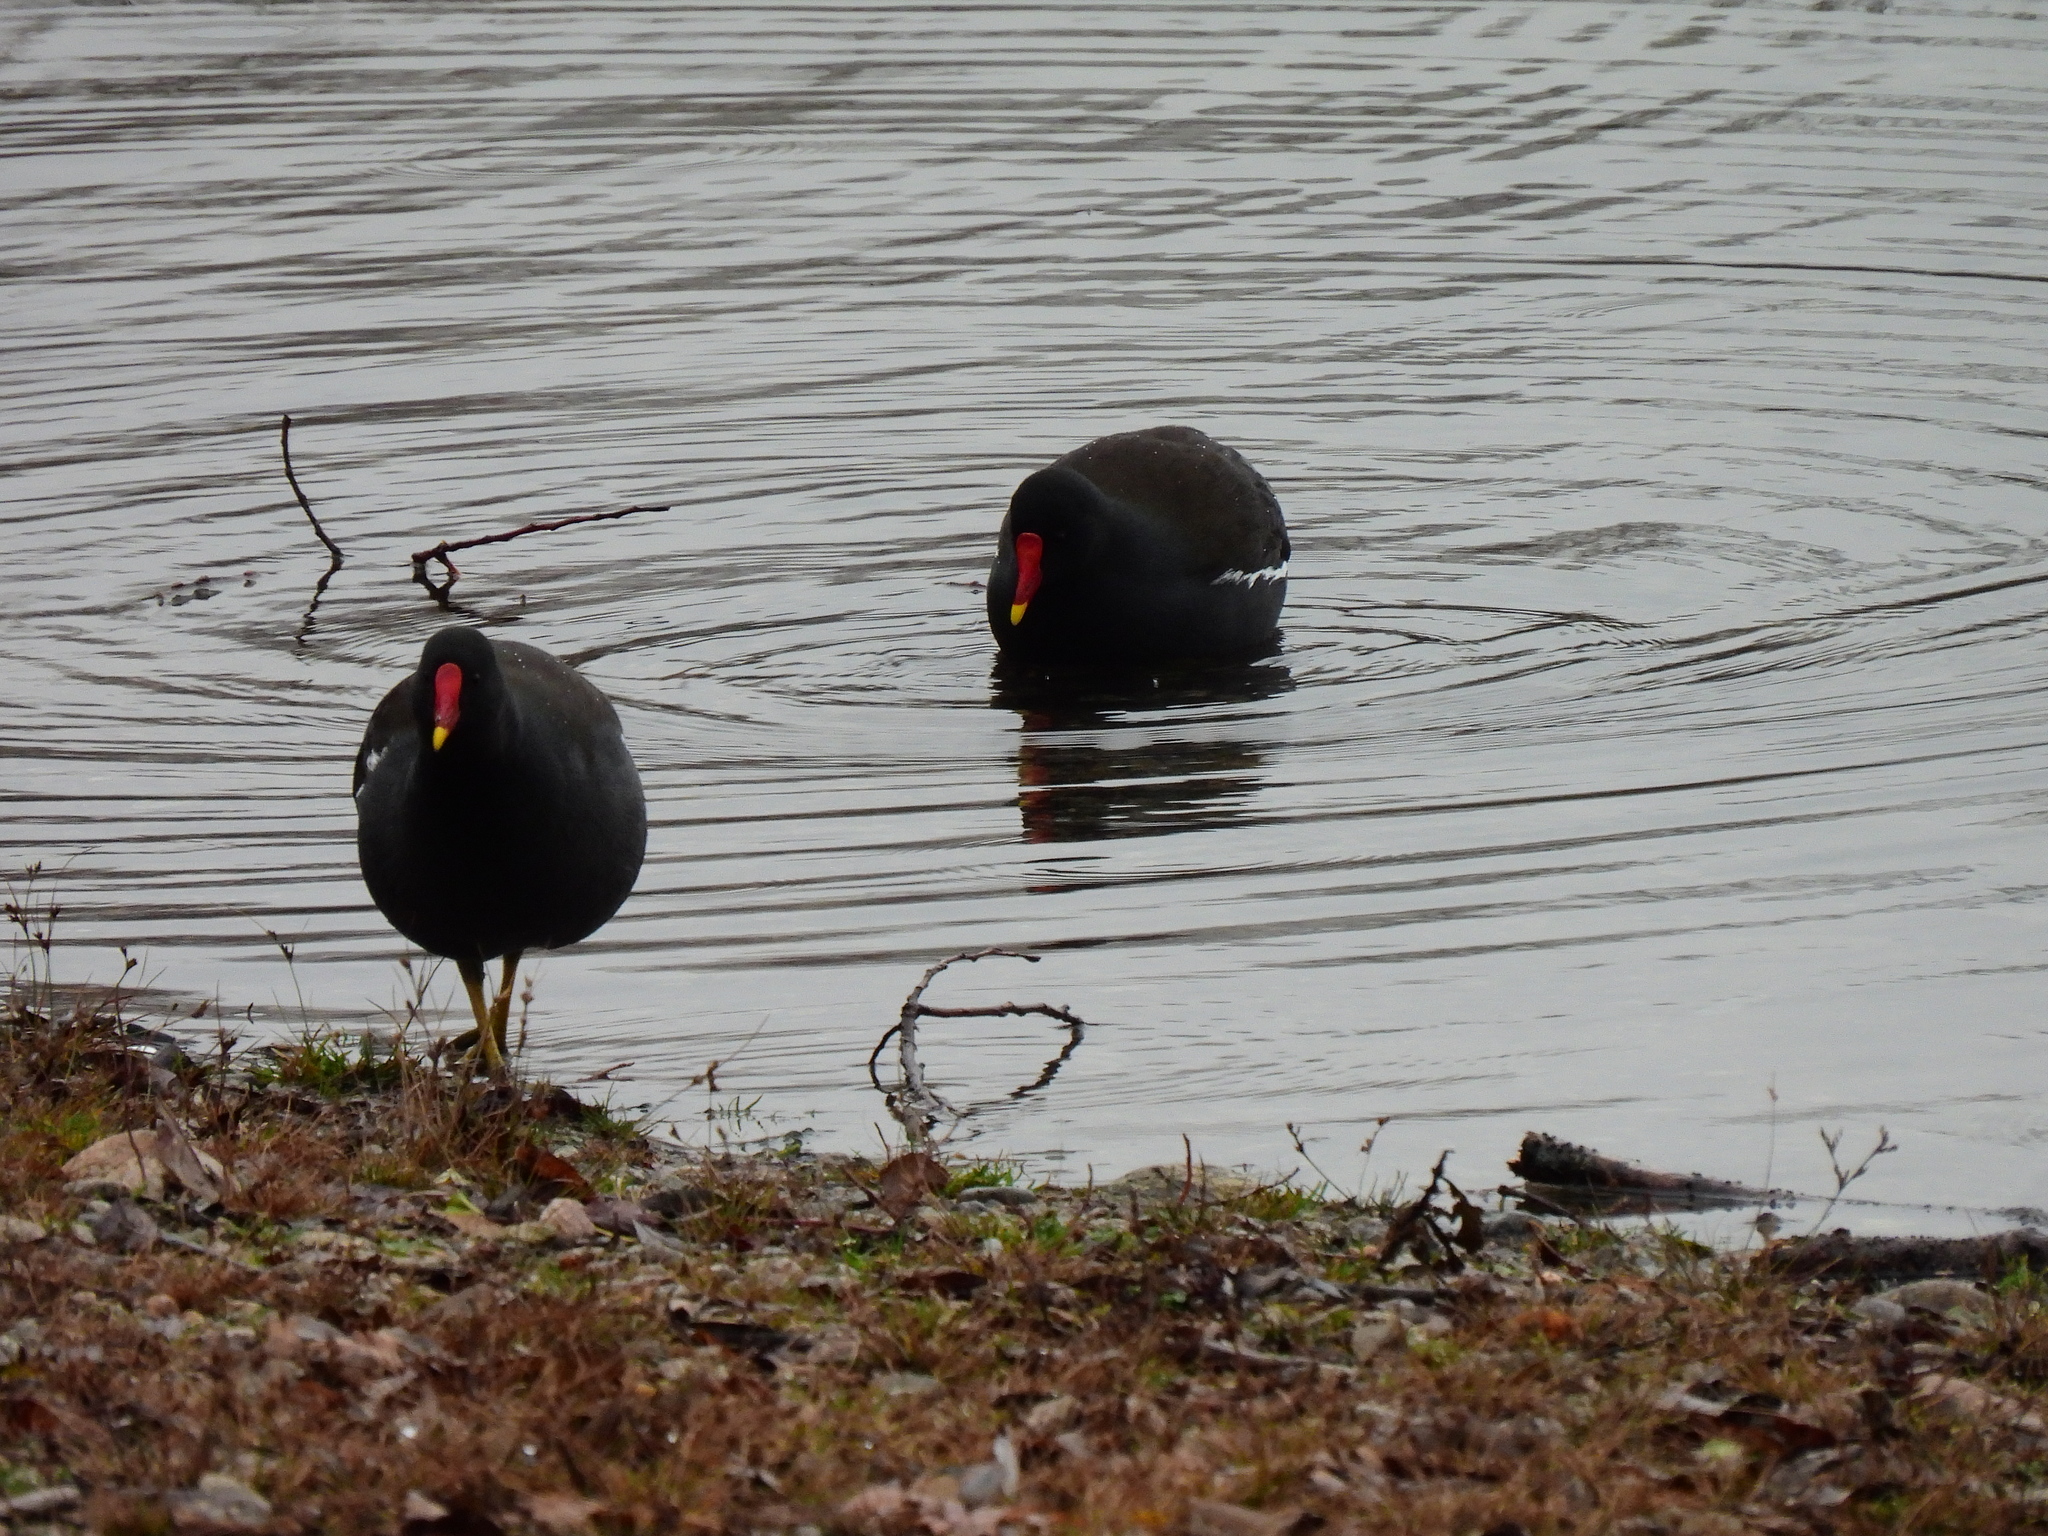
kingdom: Animalia
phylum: Chordata
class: Aves
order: Gruiformes
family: Rallidae
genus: Gallinula
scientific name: Gallinula chloropus
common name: Common moorhen
